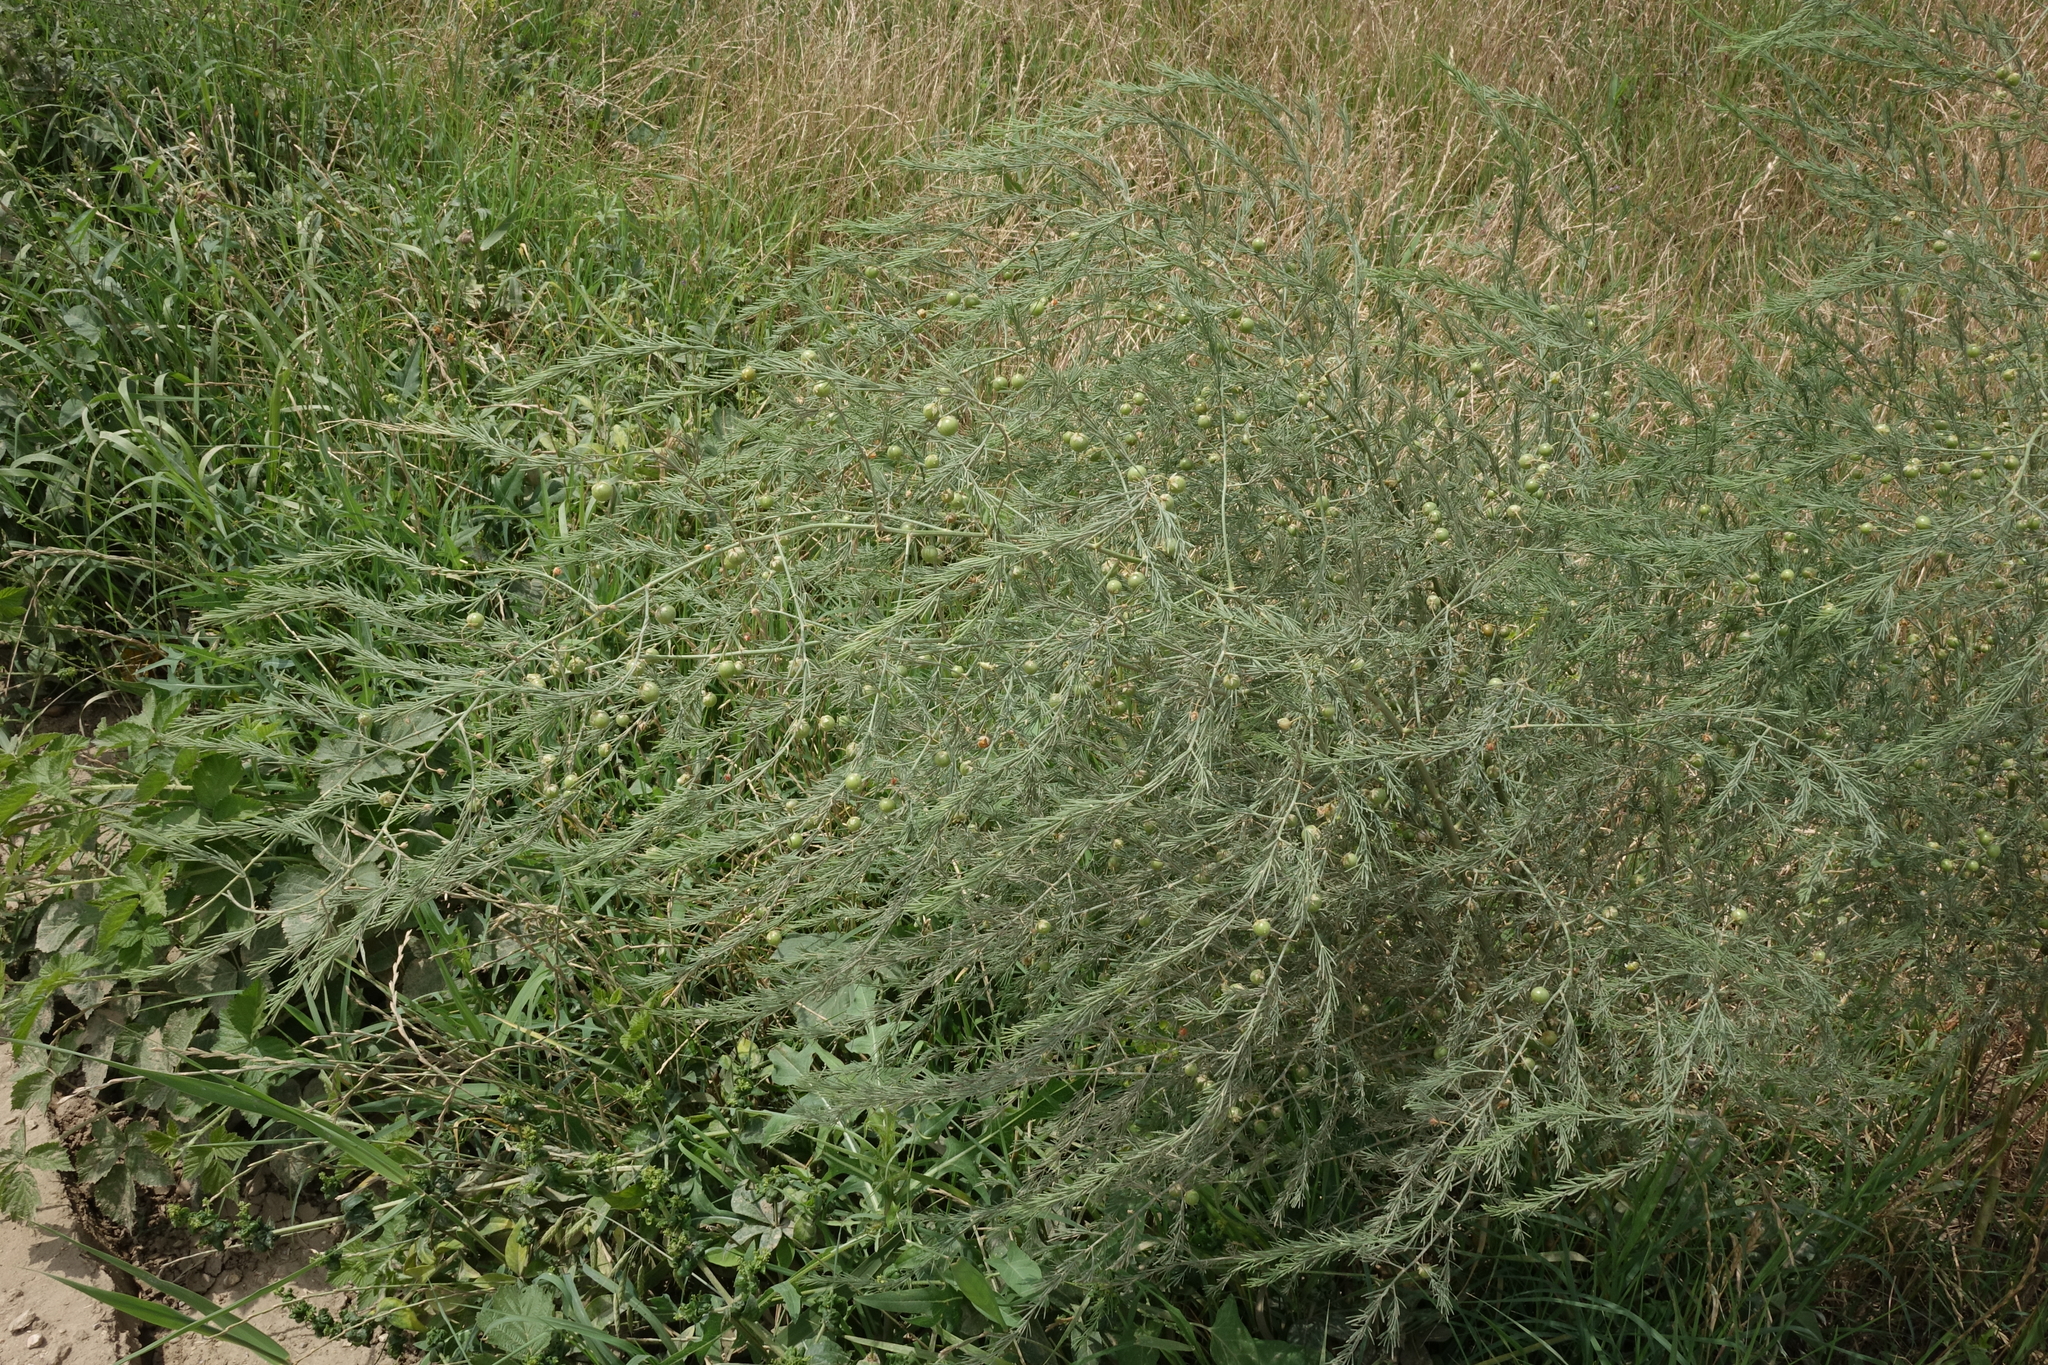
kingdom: Plantae
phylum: Tracheophyta
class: Liliopsida
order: Asparagales
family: Asparagaceae
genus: Asparagus
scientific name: Asparagus officinalis
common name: Garden asparagus
